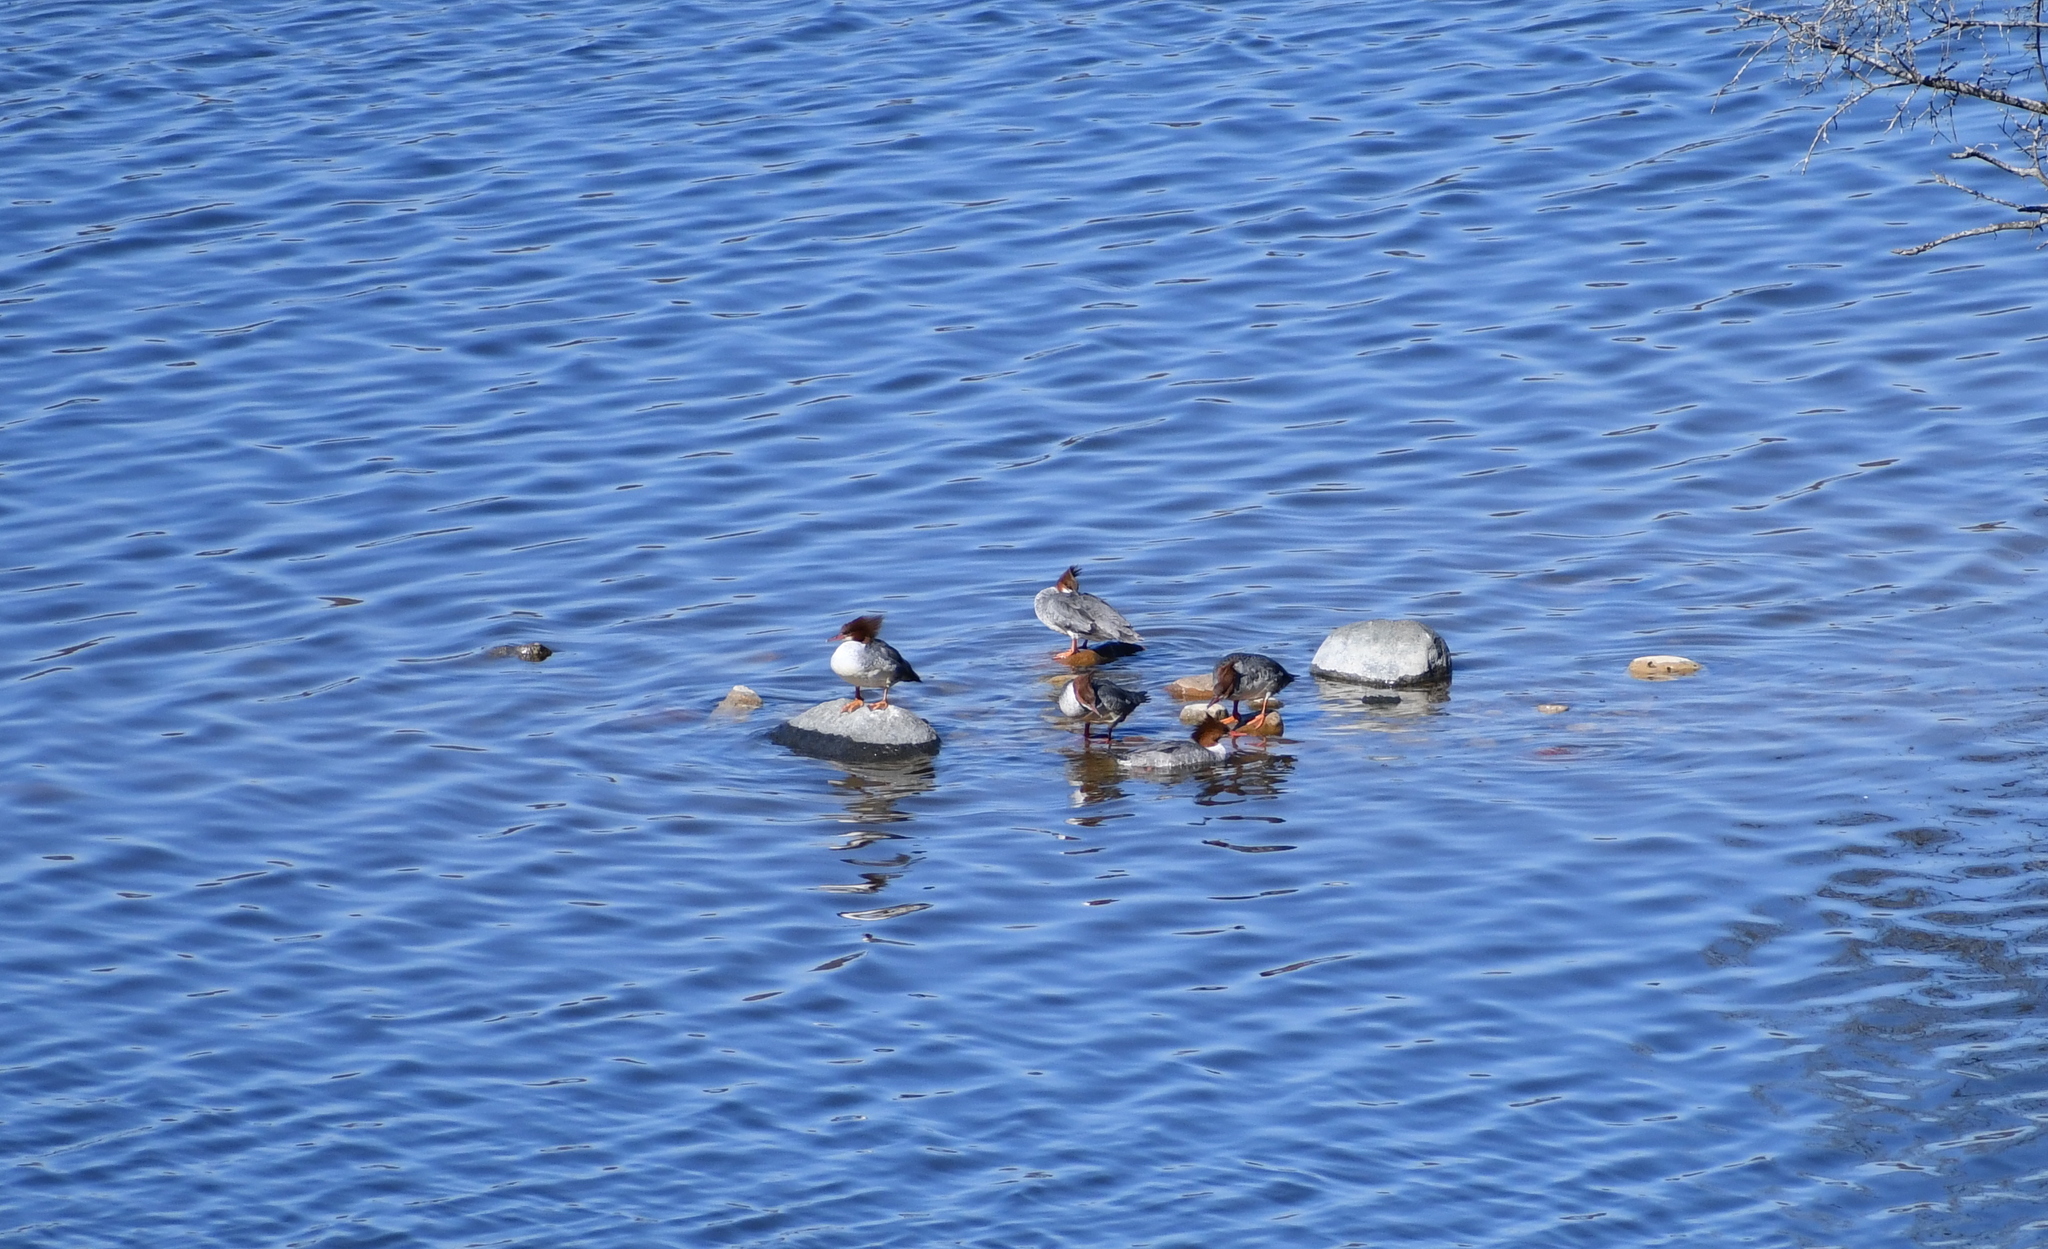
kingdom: Animalia
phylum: Chordata
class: Aves
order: Anseriformes
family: Anatidae
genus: Mergus
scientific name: Mergus merganser
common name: Common merganser
